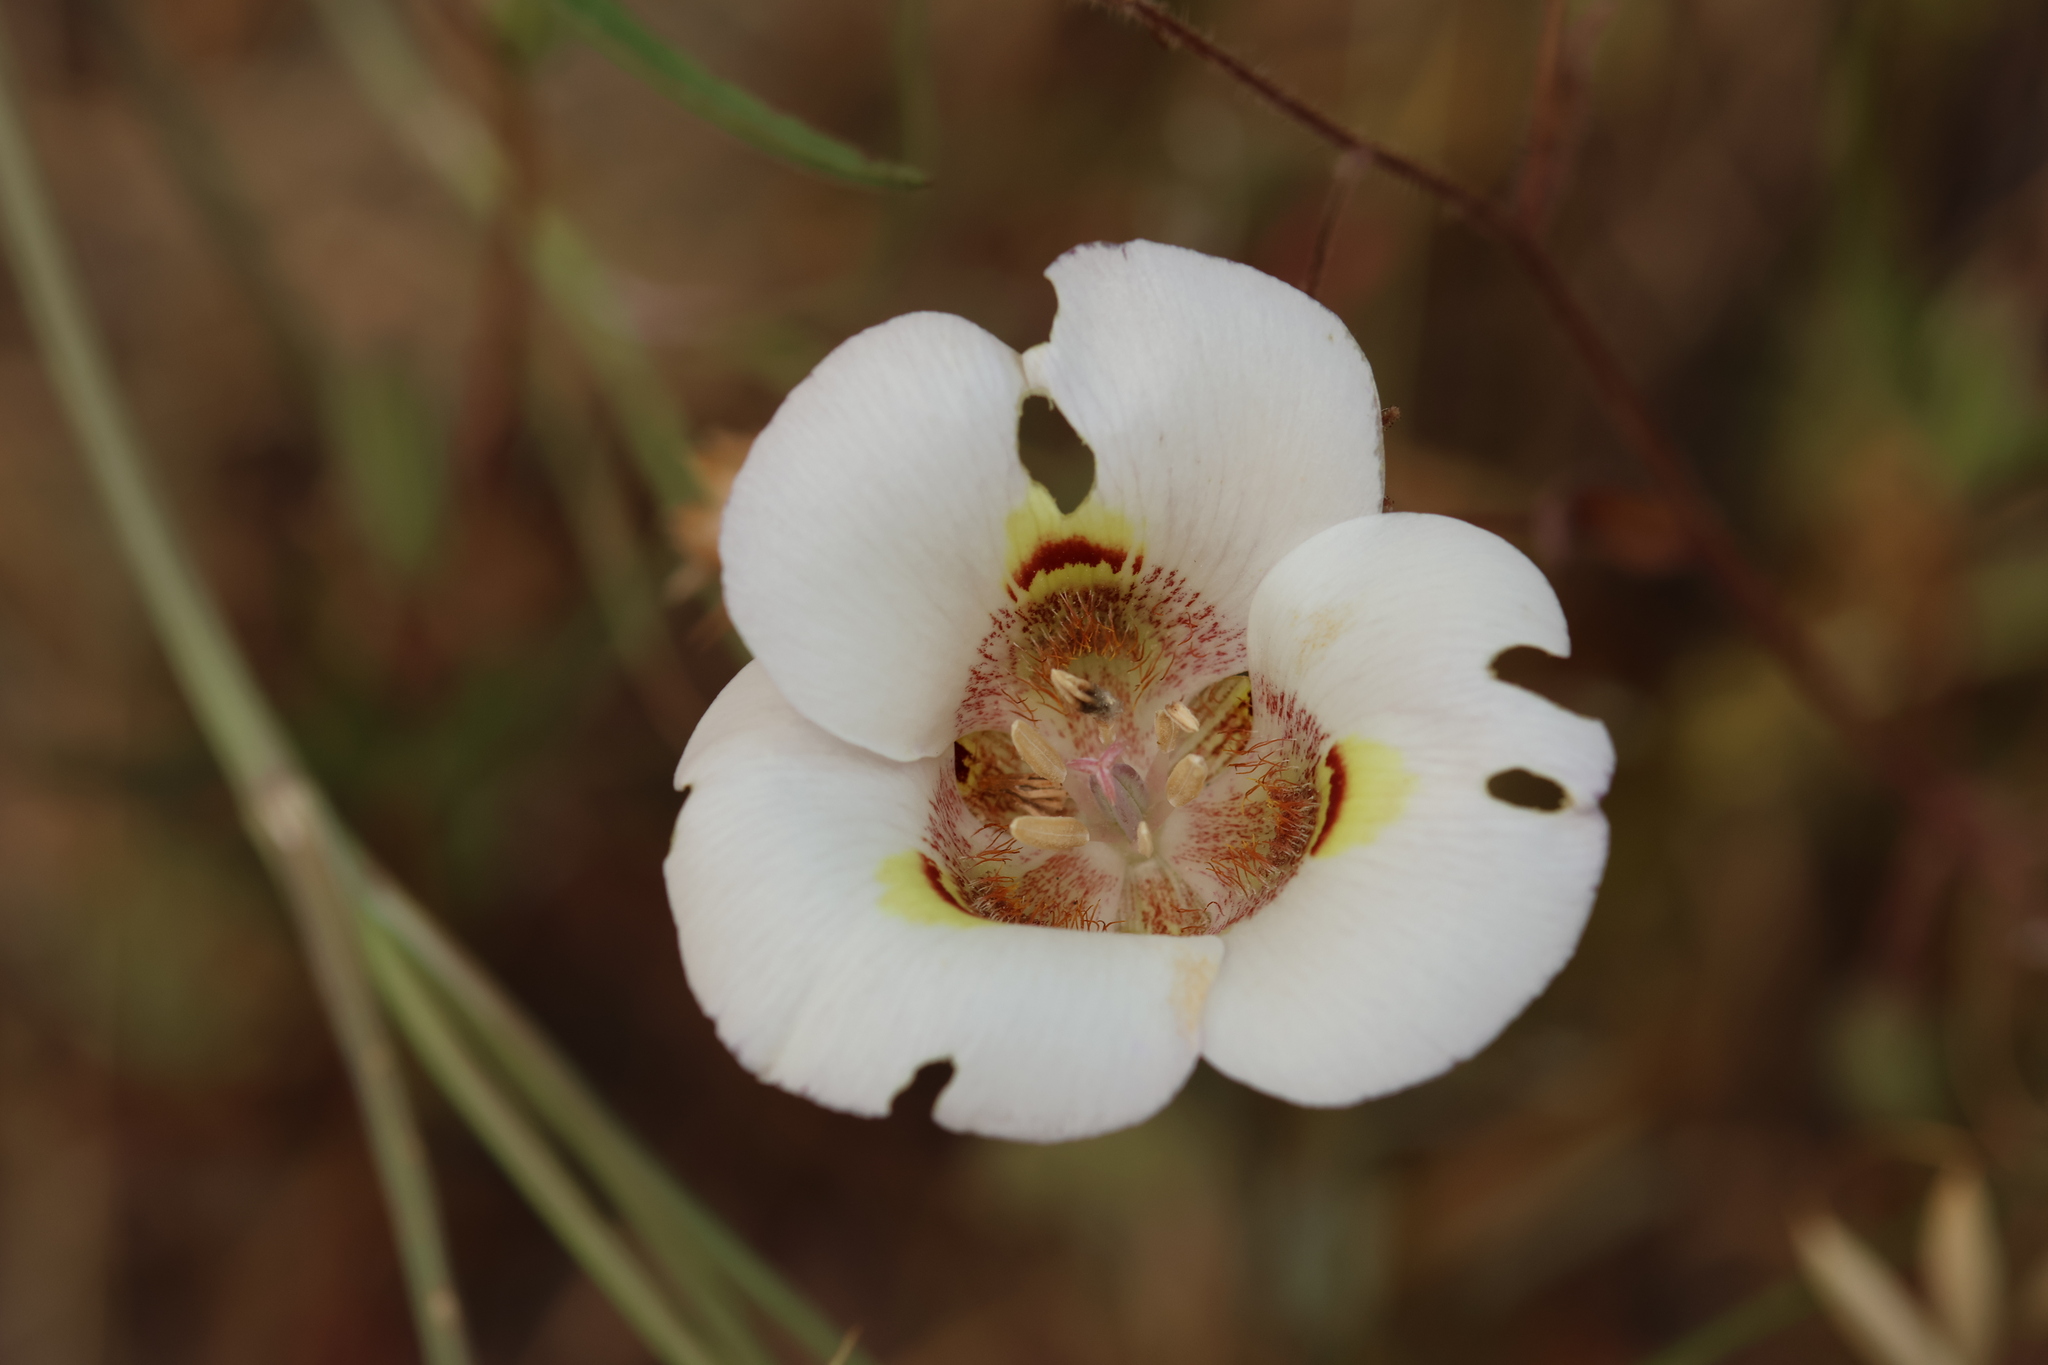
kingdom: Plantae
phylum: Tracheophyta
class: Liliopsida
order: Liliales
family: Liliaceae
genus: Calochortus
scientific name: Calochortus argillosus
